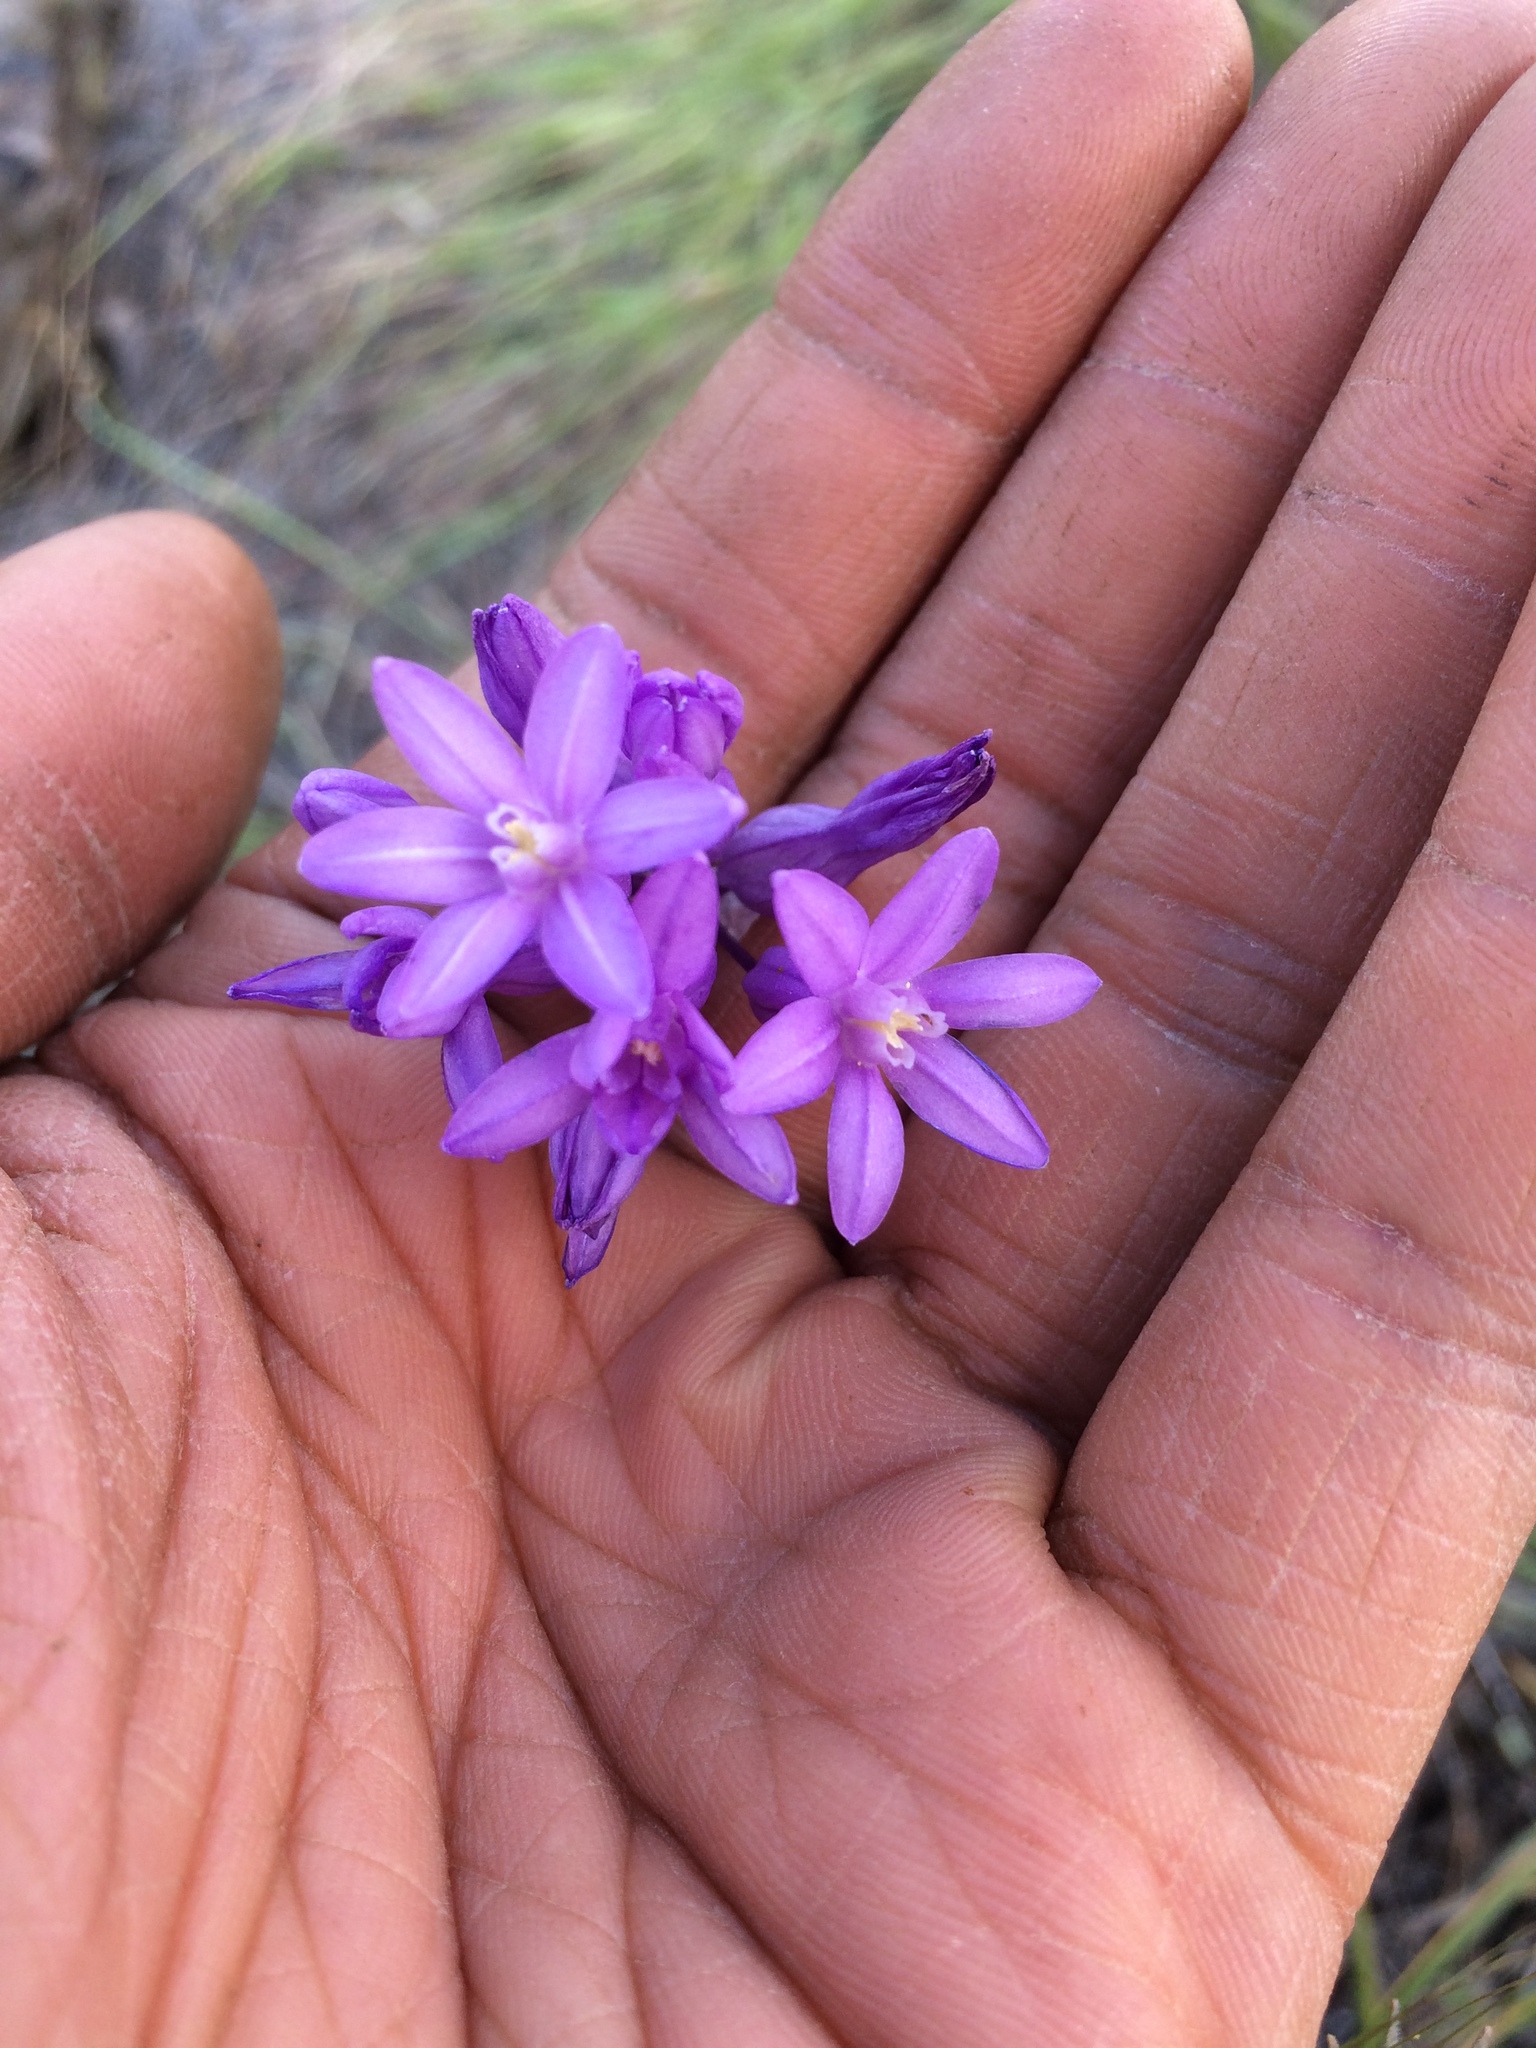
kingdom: Plantae
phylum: Tracheophyta
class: Liliopsida
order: Asparagales
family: Asparagaceae
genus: Dichelostemma
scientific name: Dichelostemma multiflorum
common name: Round-tooth ookow
